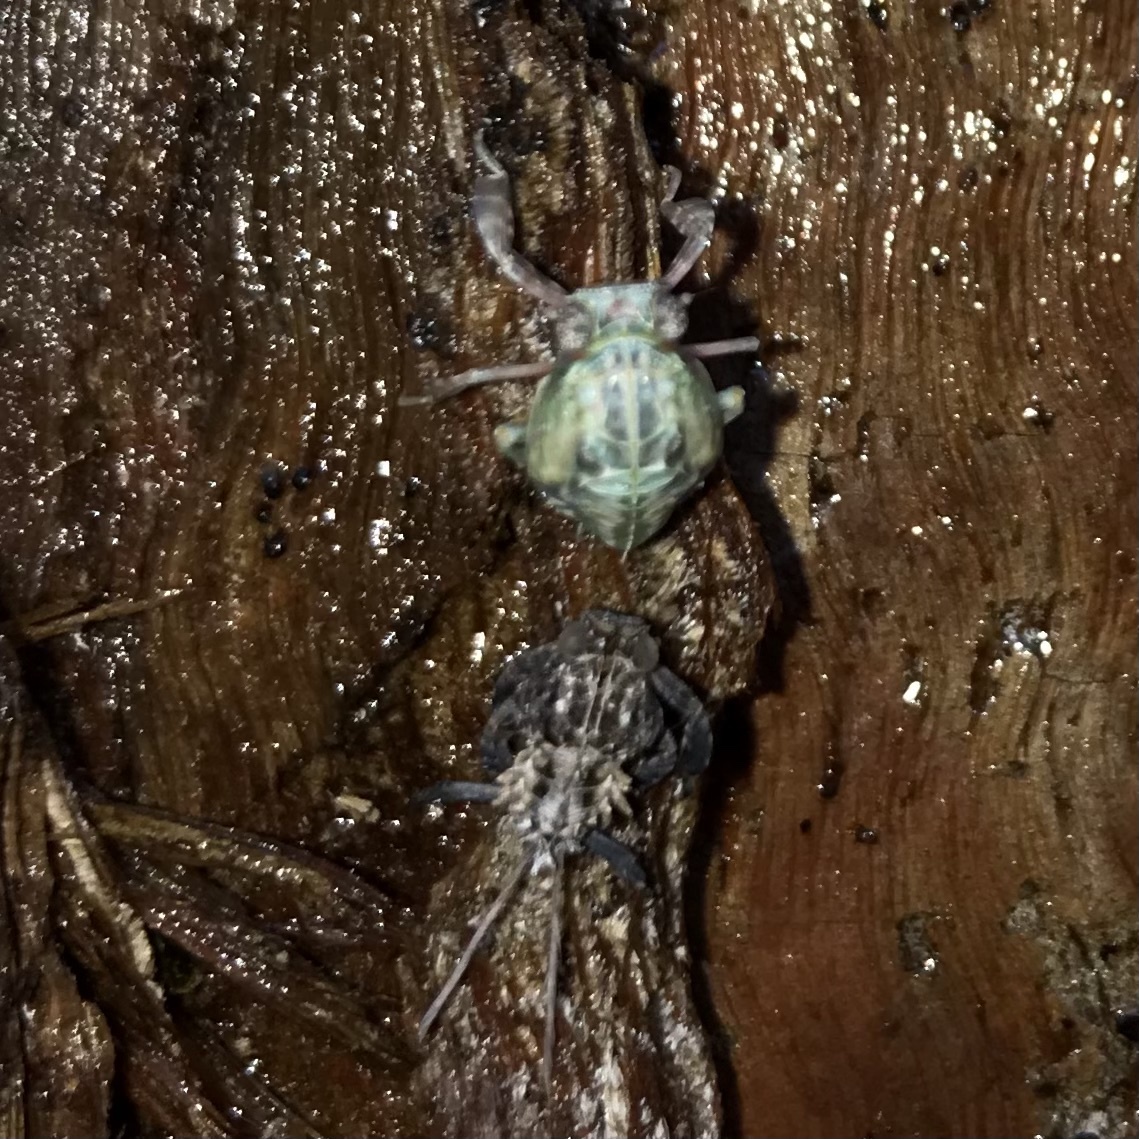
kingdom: Animalia
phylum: Arthropoda
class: Insecta
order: Hemiptera
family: Cicadidae
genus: Cystosoma
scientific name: Cystosoma saundersii
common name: Bladder cicada
